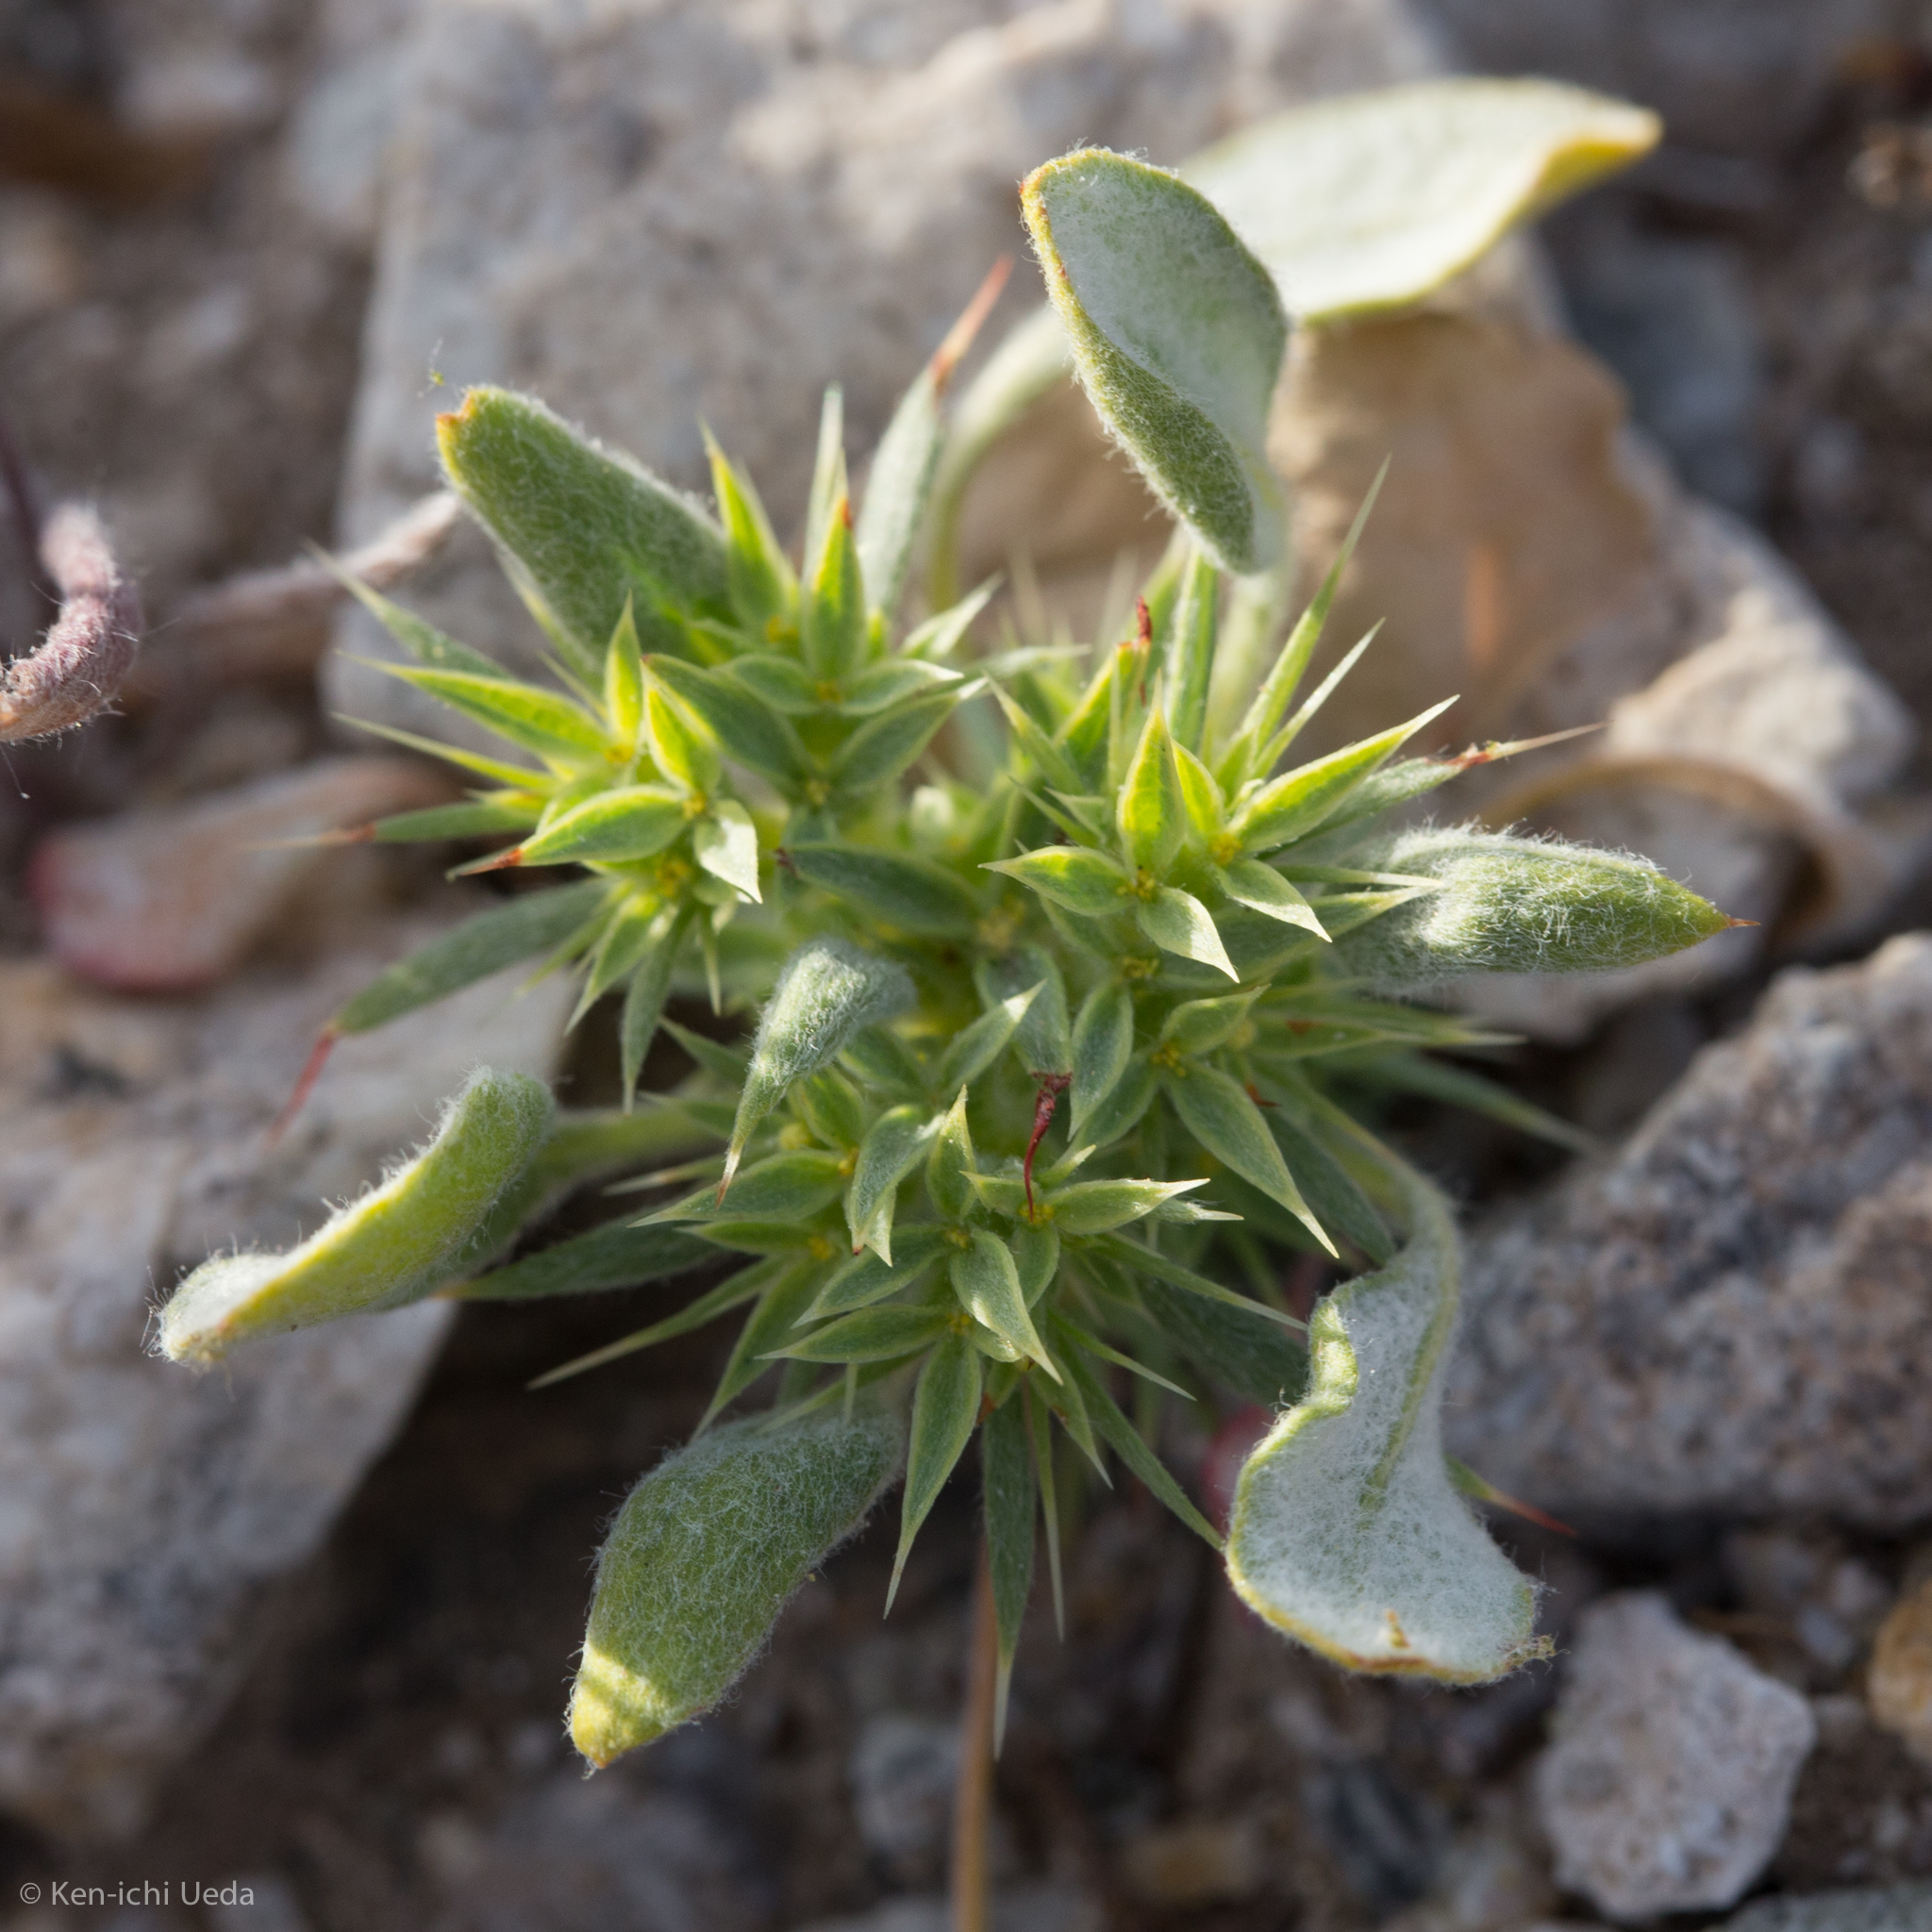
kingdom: Plantae
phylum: Tracheophyta
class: Magnoliopsida
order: Caryophyllales
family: Polygonaceae
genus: Chorizanthe
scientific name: Chorizanthe rigida
